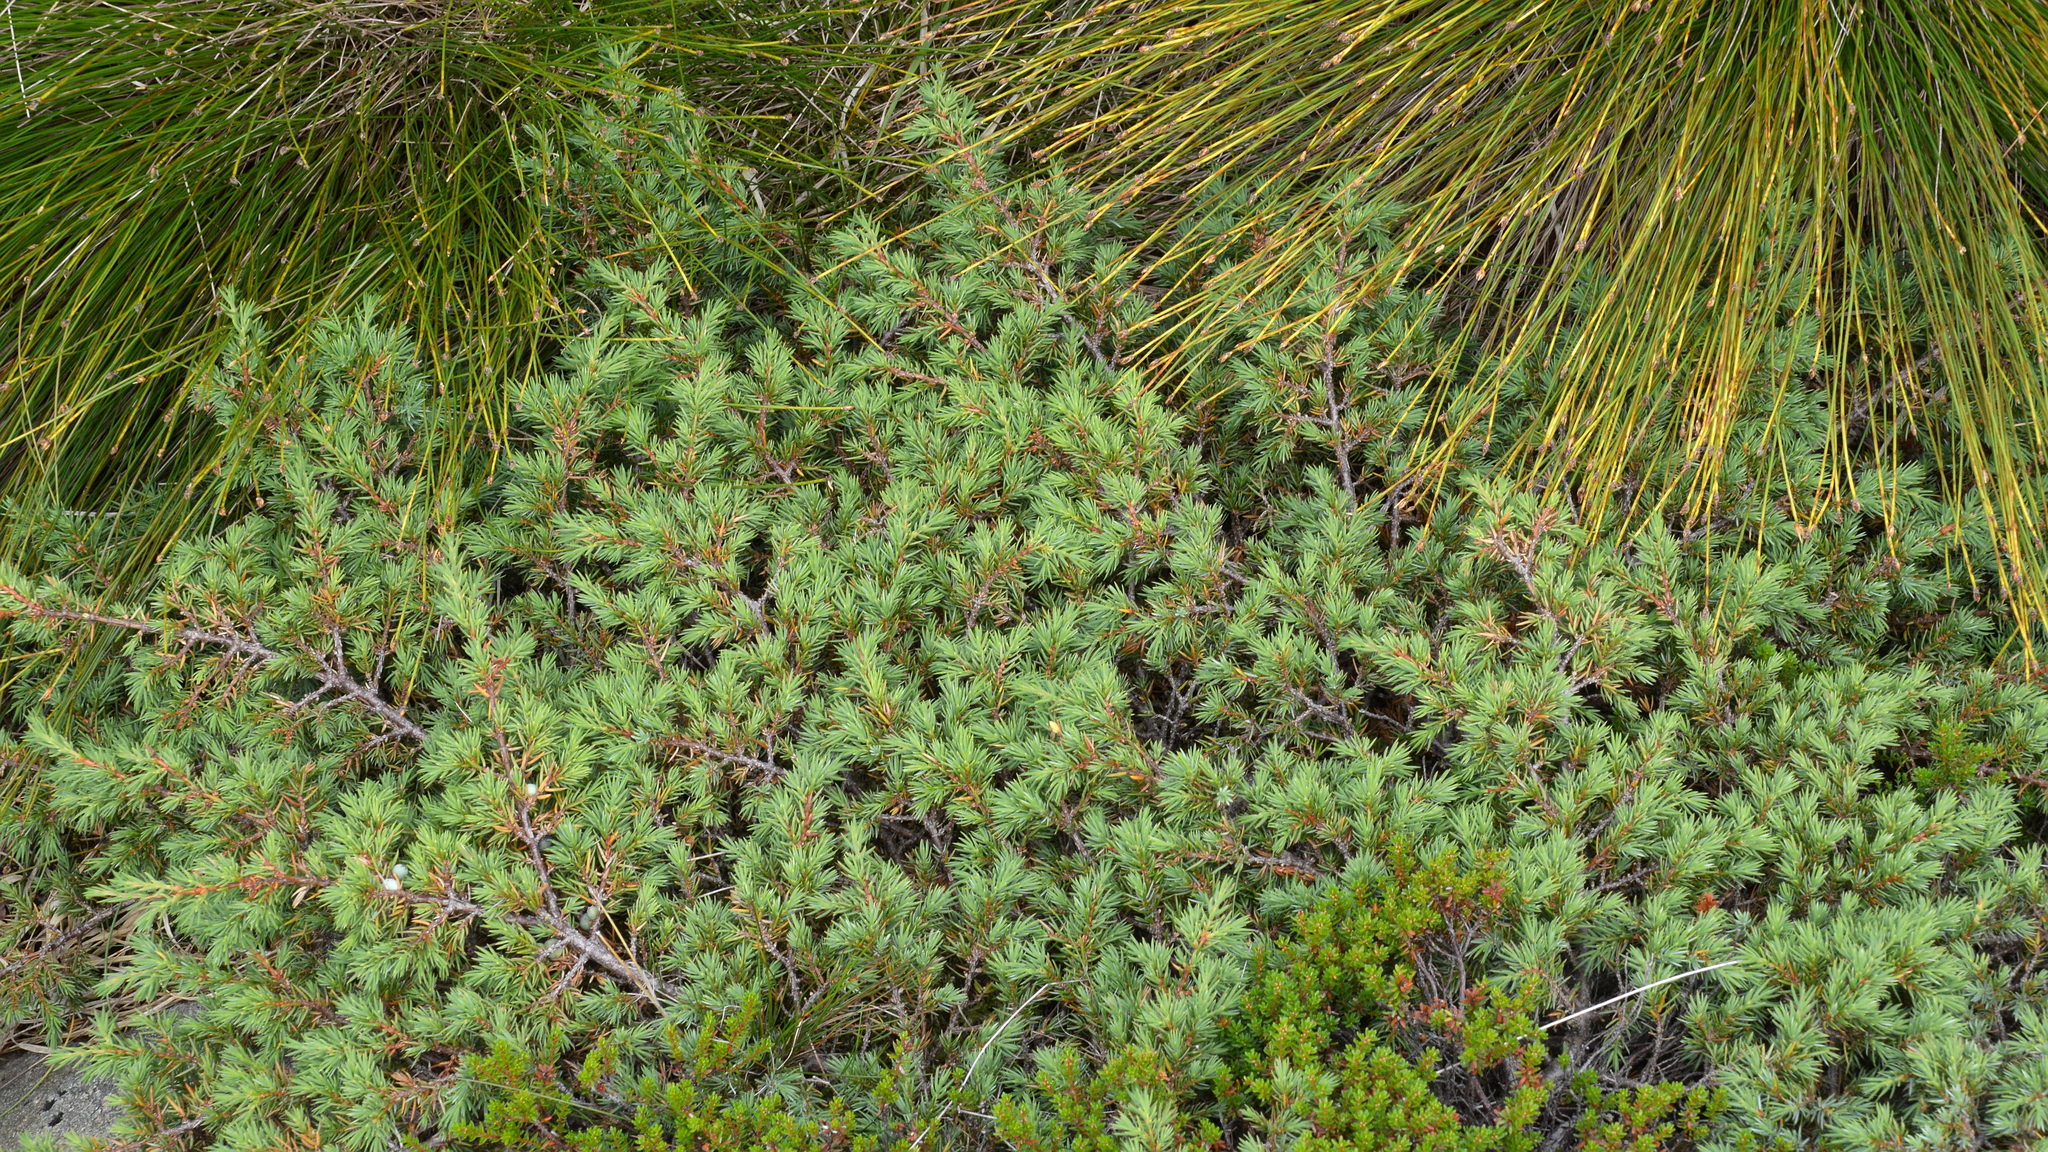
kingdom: Plantae
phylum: Tracheophyta
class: Pinopsida
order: Pinales
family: Cupressaceae
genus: Juniperus
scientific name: Juniperus communis
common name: Common juniper
